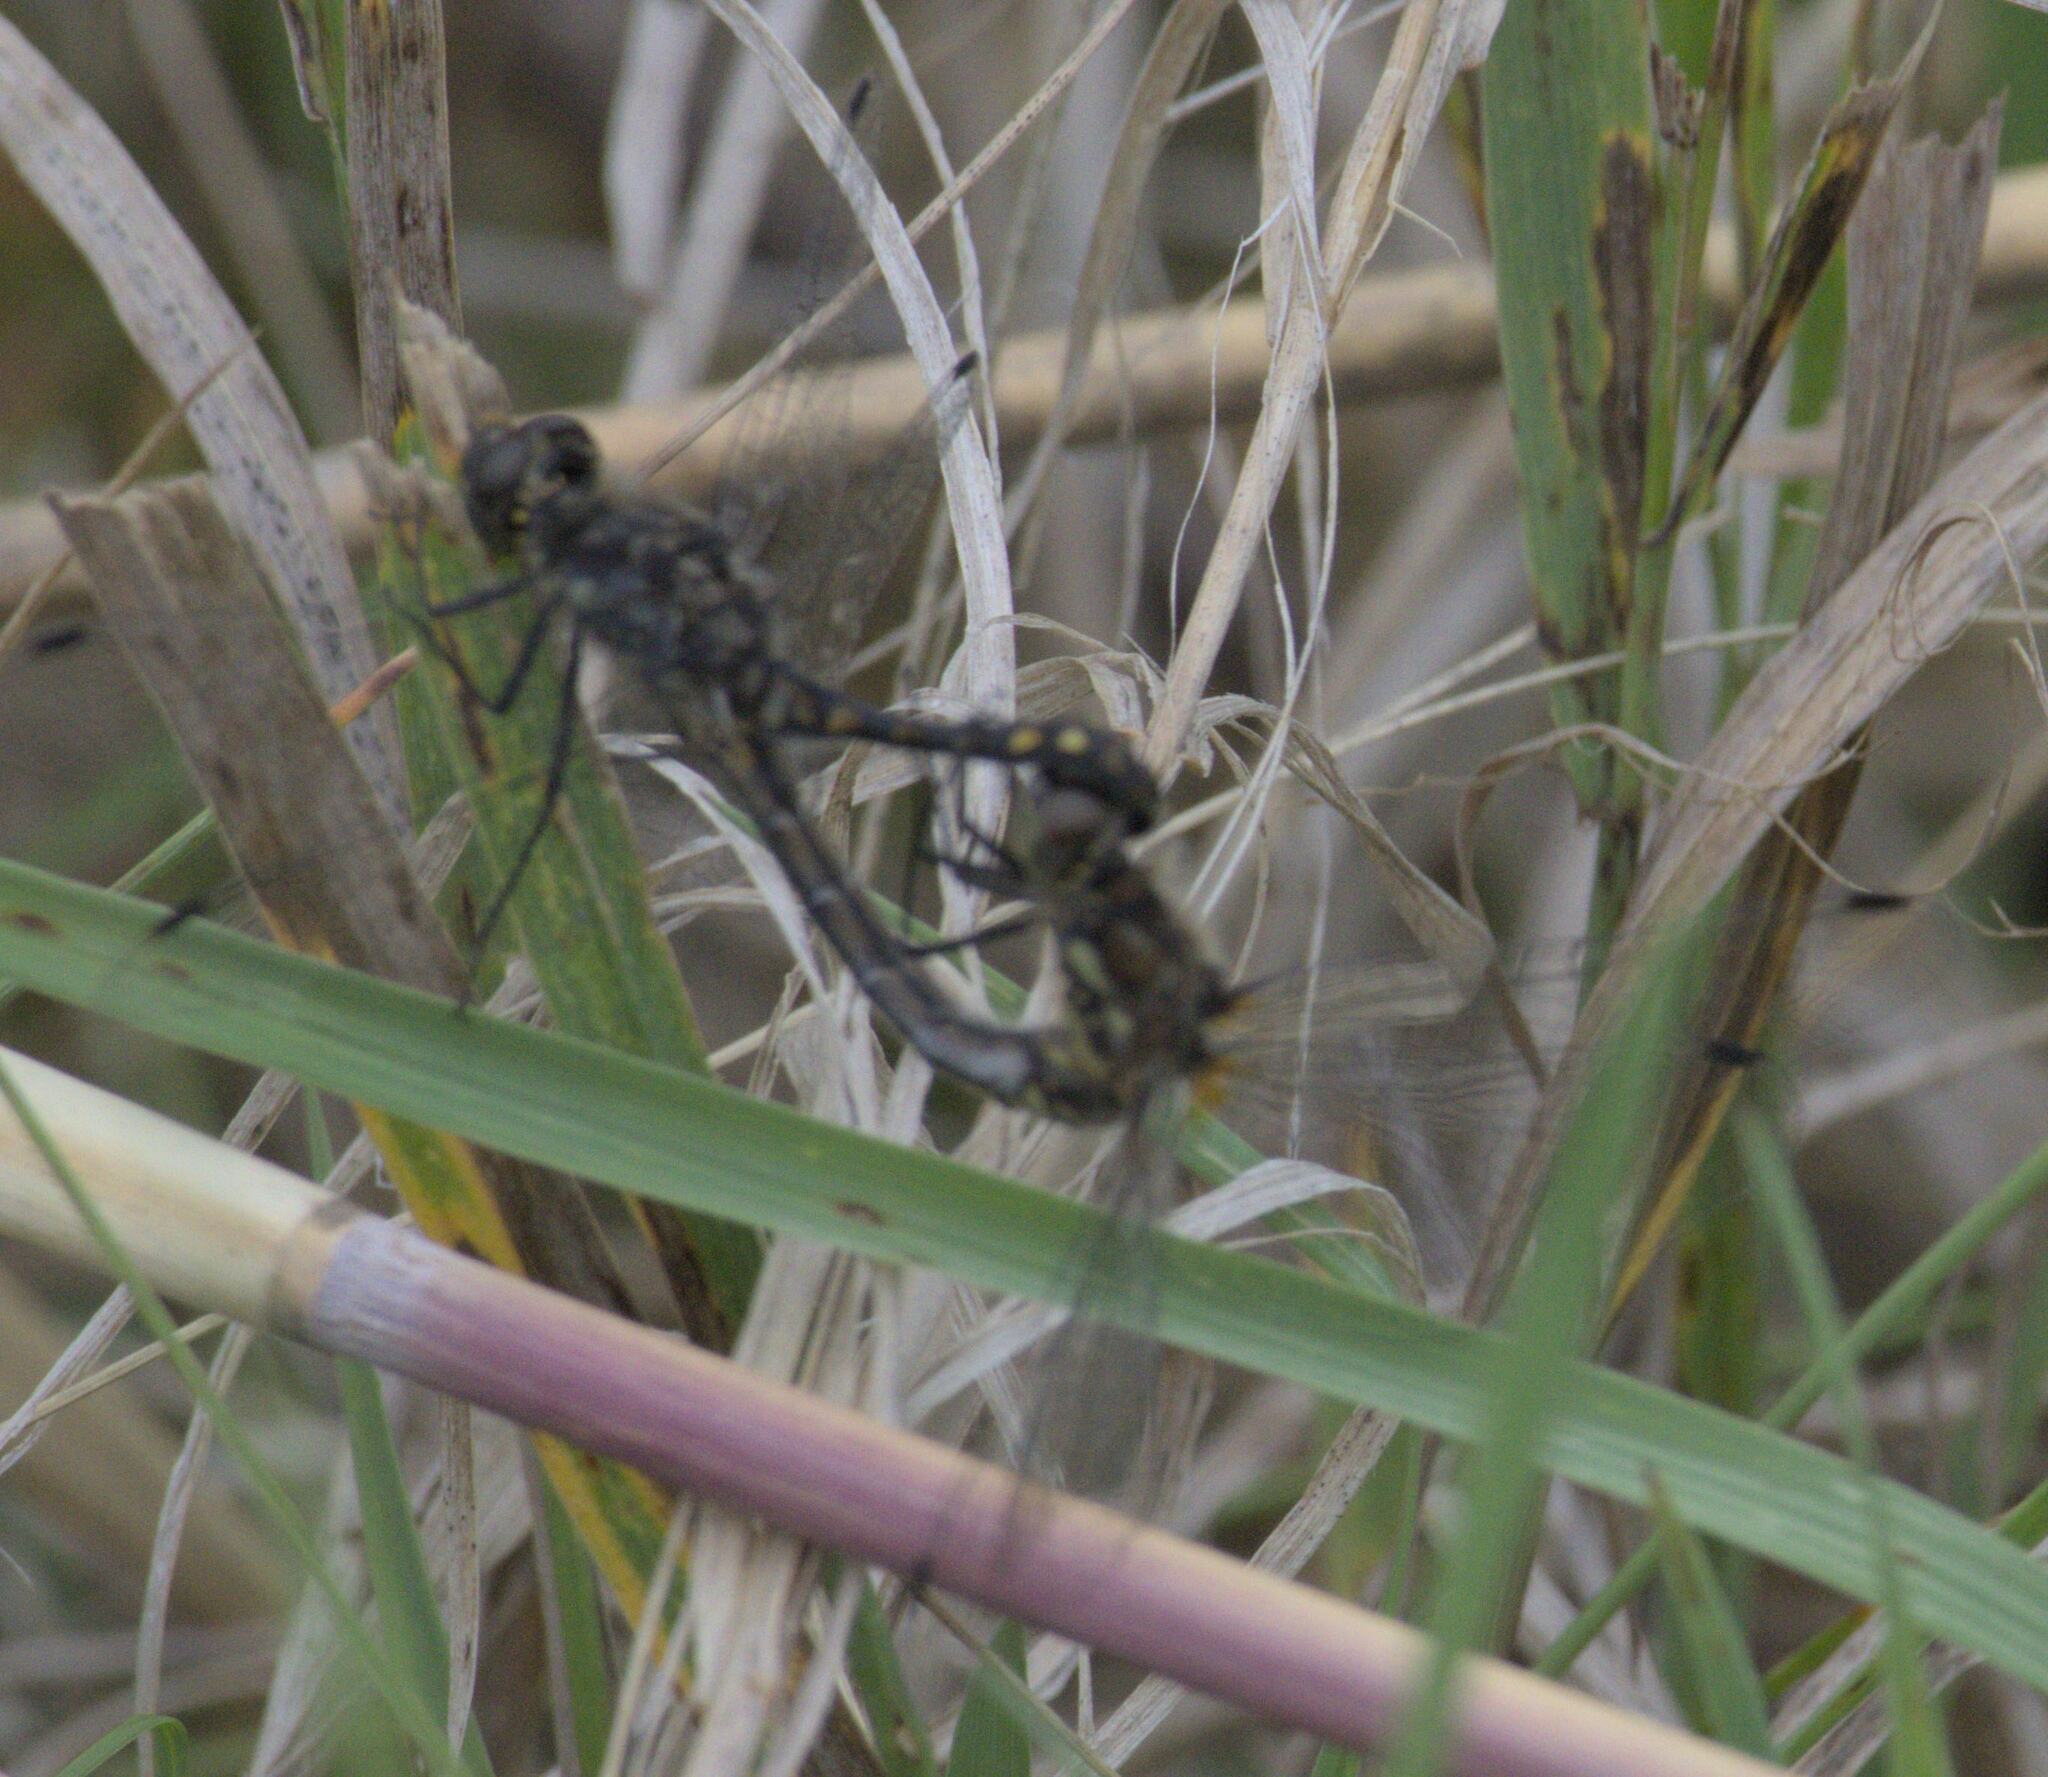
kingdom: Animalia
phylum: Arthropoda
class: Insecta
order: Odonata
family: Libellulidae
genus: Sympetrum
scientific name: Sympetrum danae
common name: Black darter
